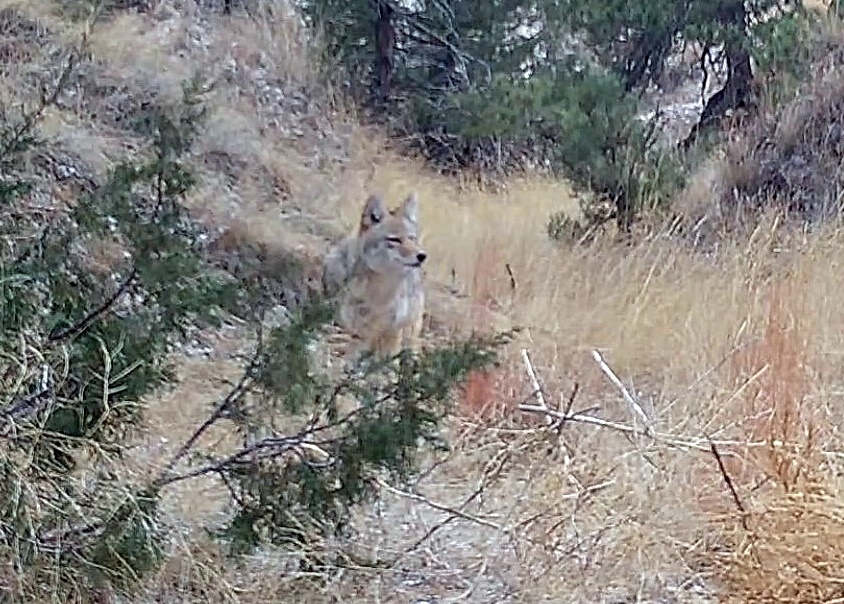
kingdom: Animalia
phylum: Chordata
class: Mammalia
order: Carnivora
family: Canidae
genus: Canis
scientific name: Canis latrans
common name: Coyote
